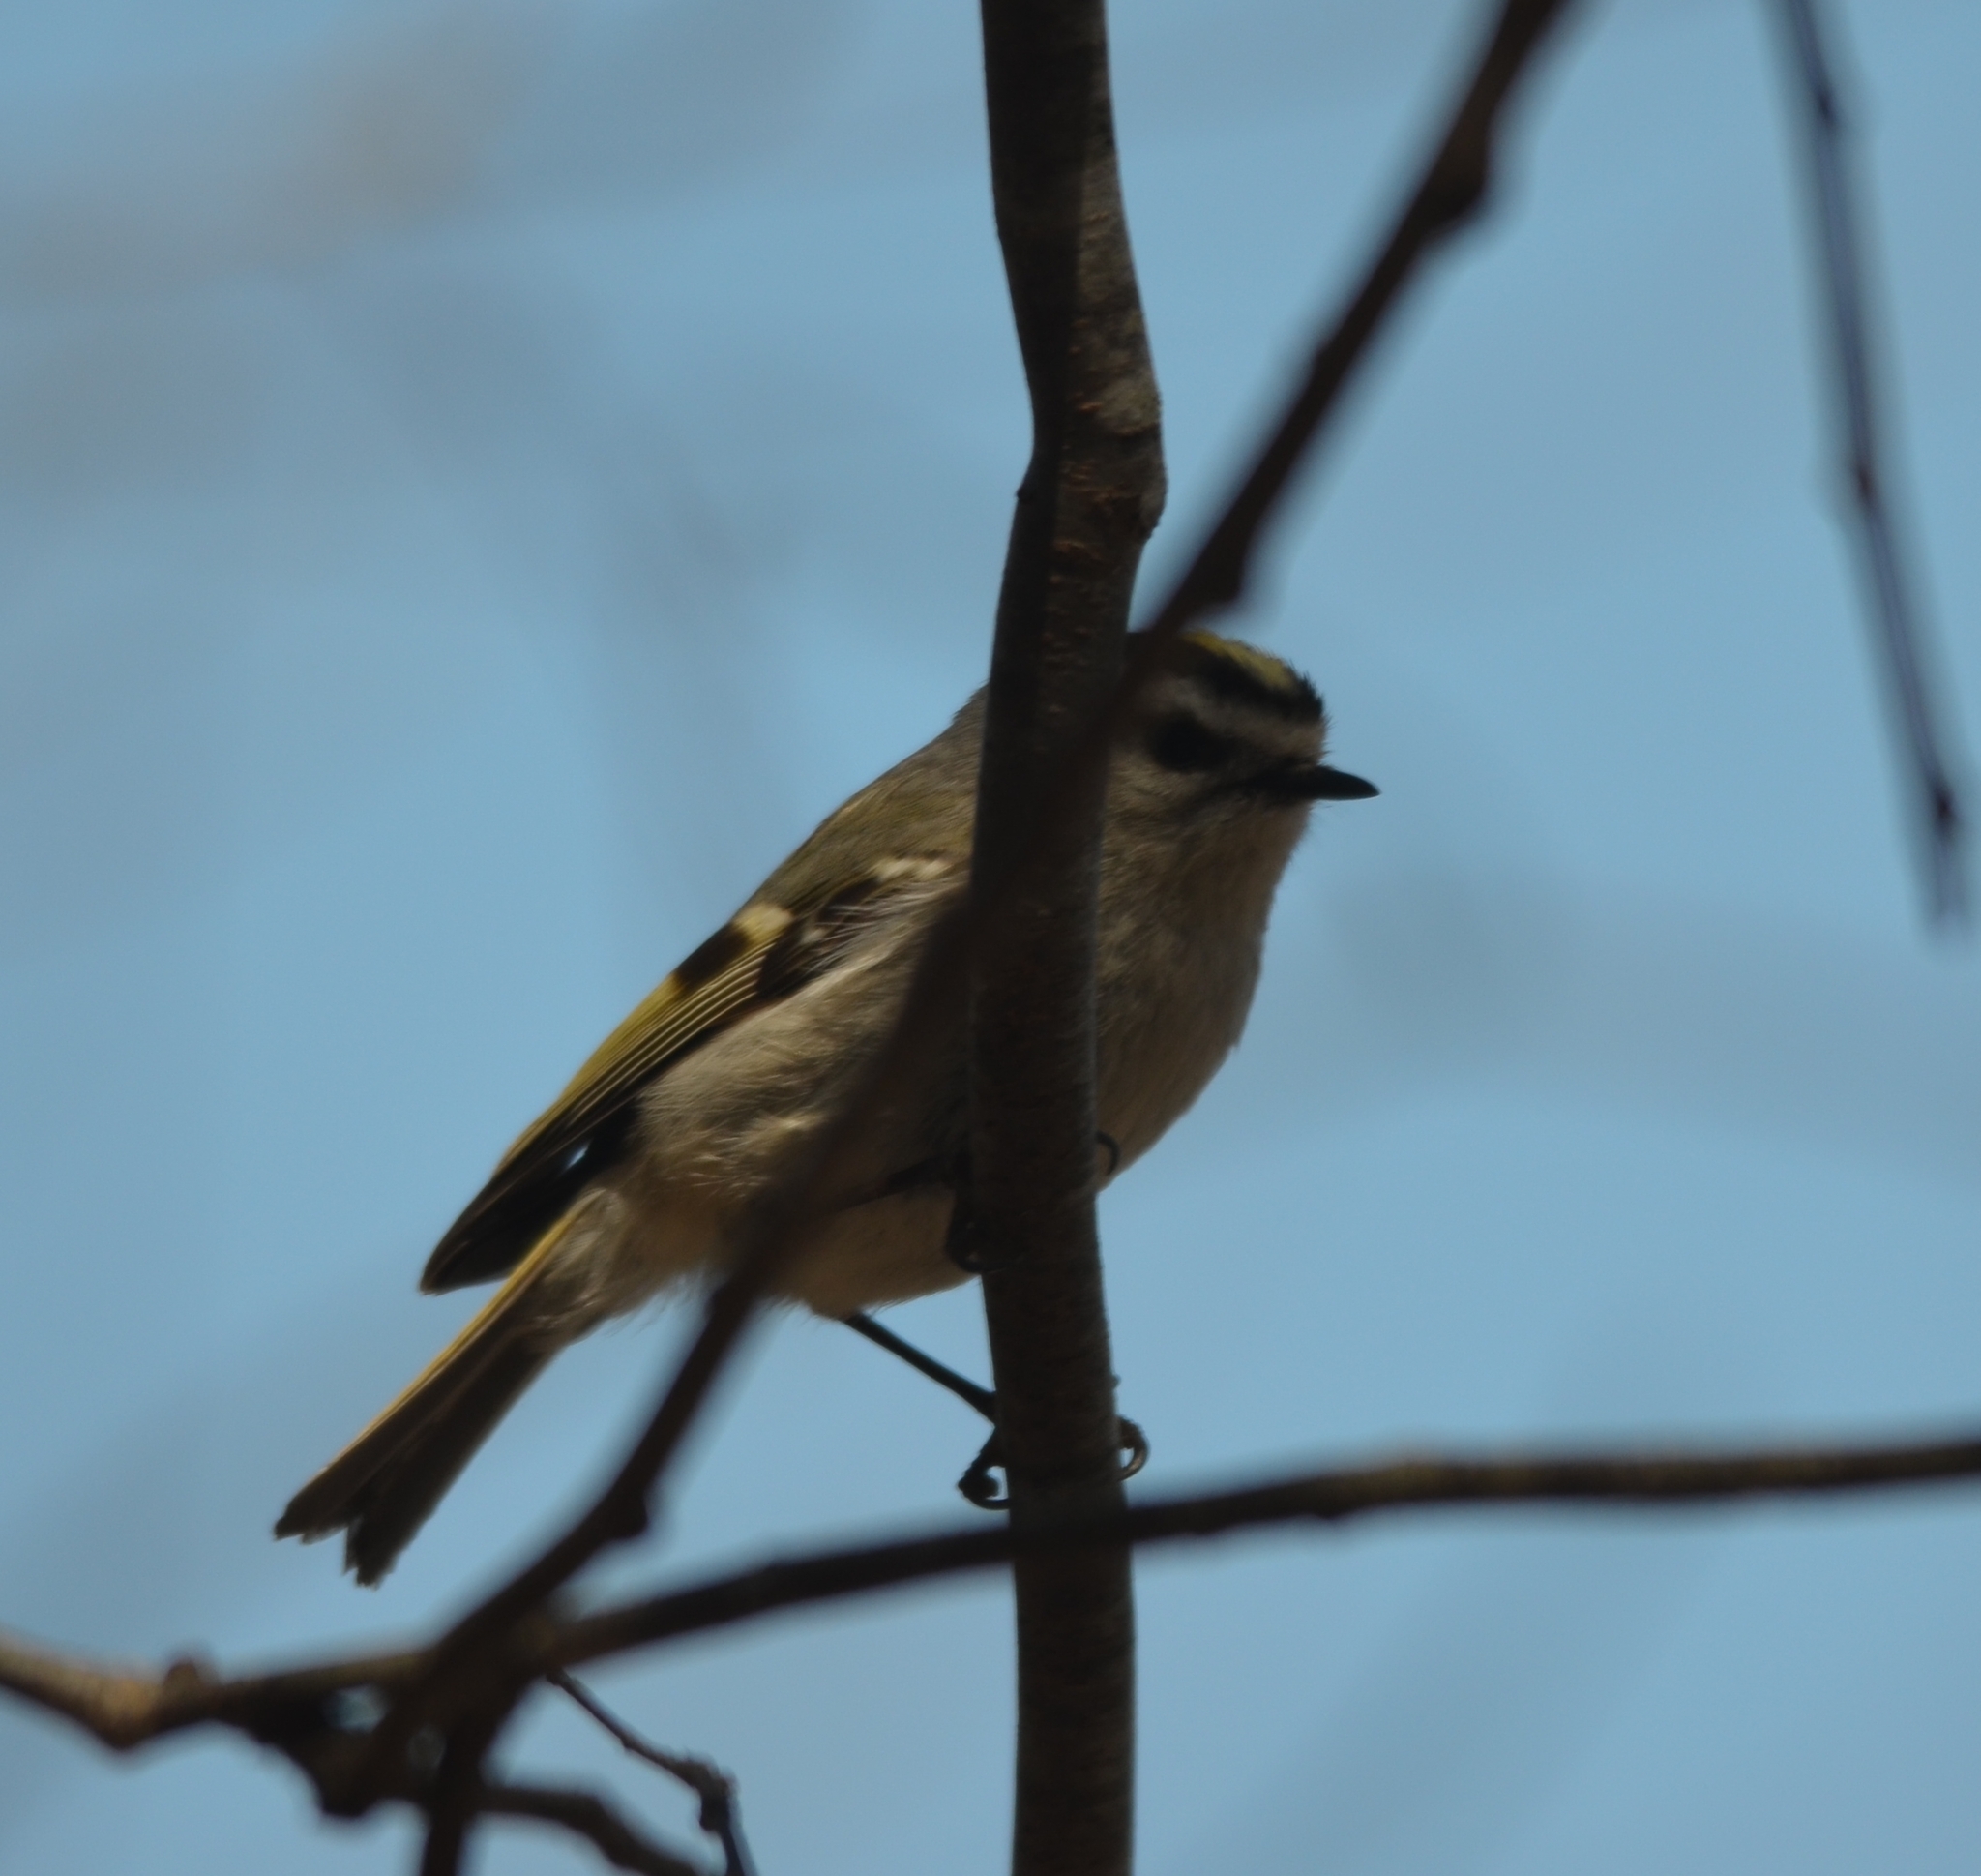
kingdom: Animalia
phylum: Chordata
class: Aves
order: Passeriformes
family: Regulidae
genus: Regulus
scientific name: Regulus satrapa
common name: Golden-crowned kinglet
